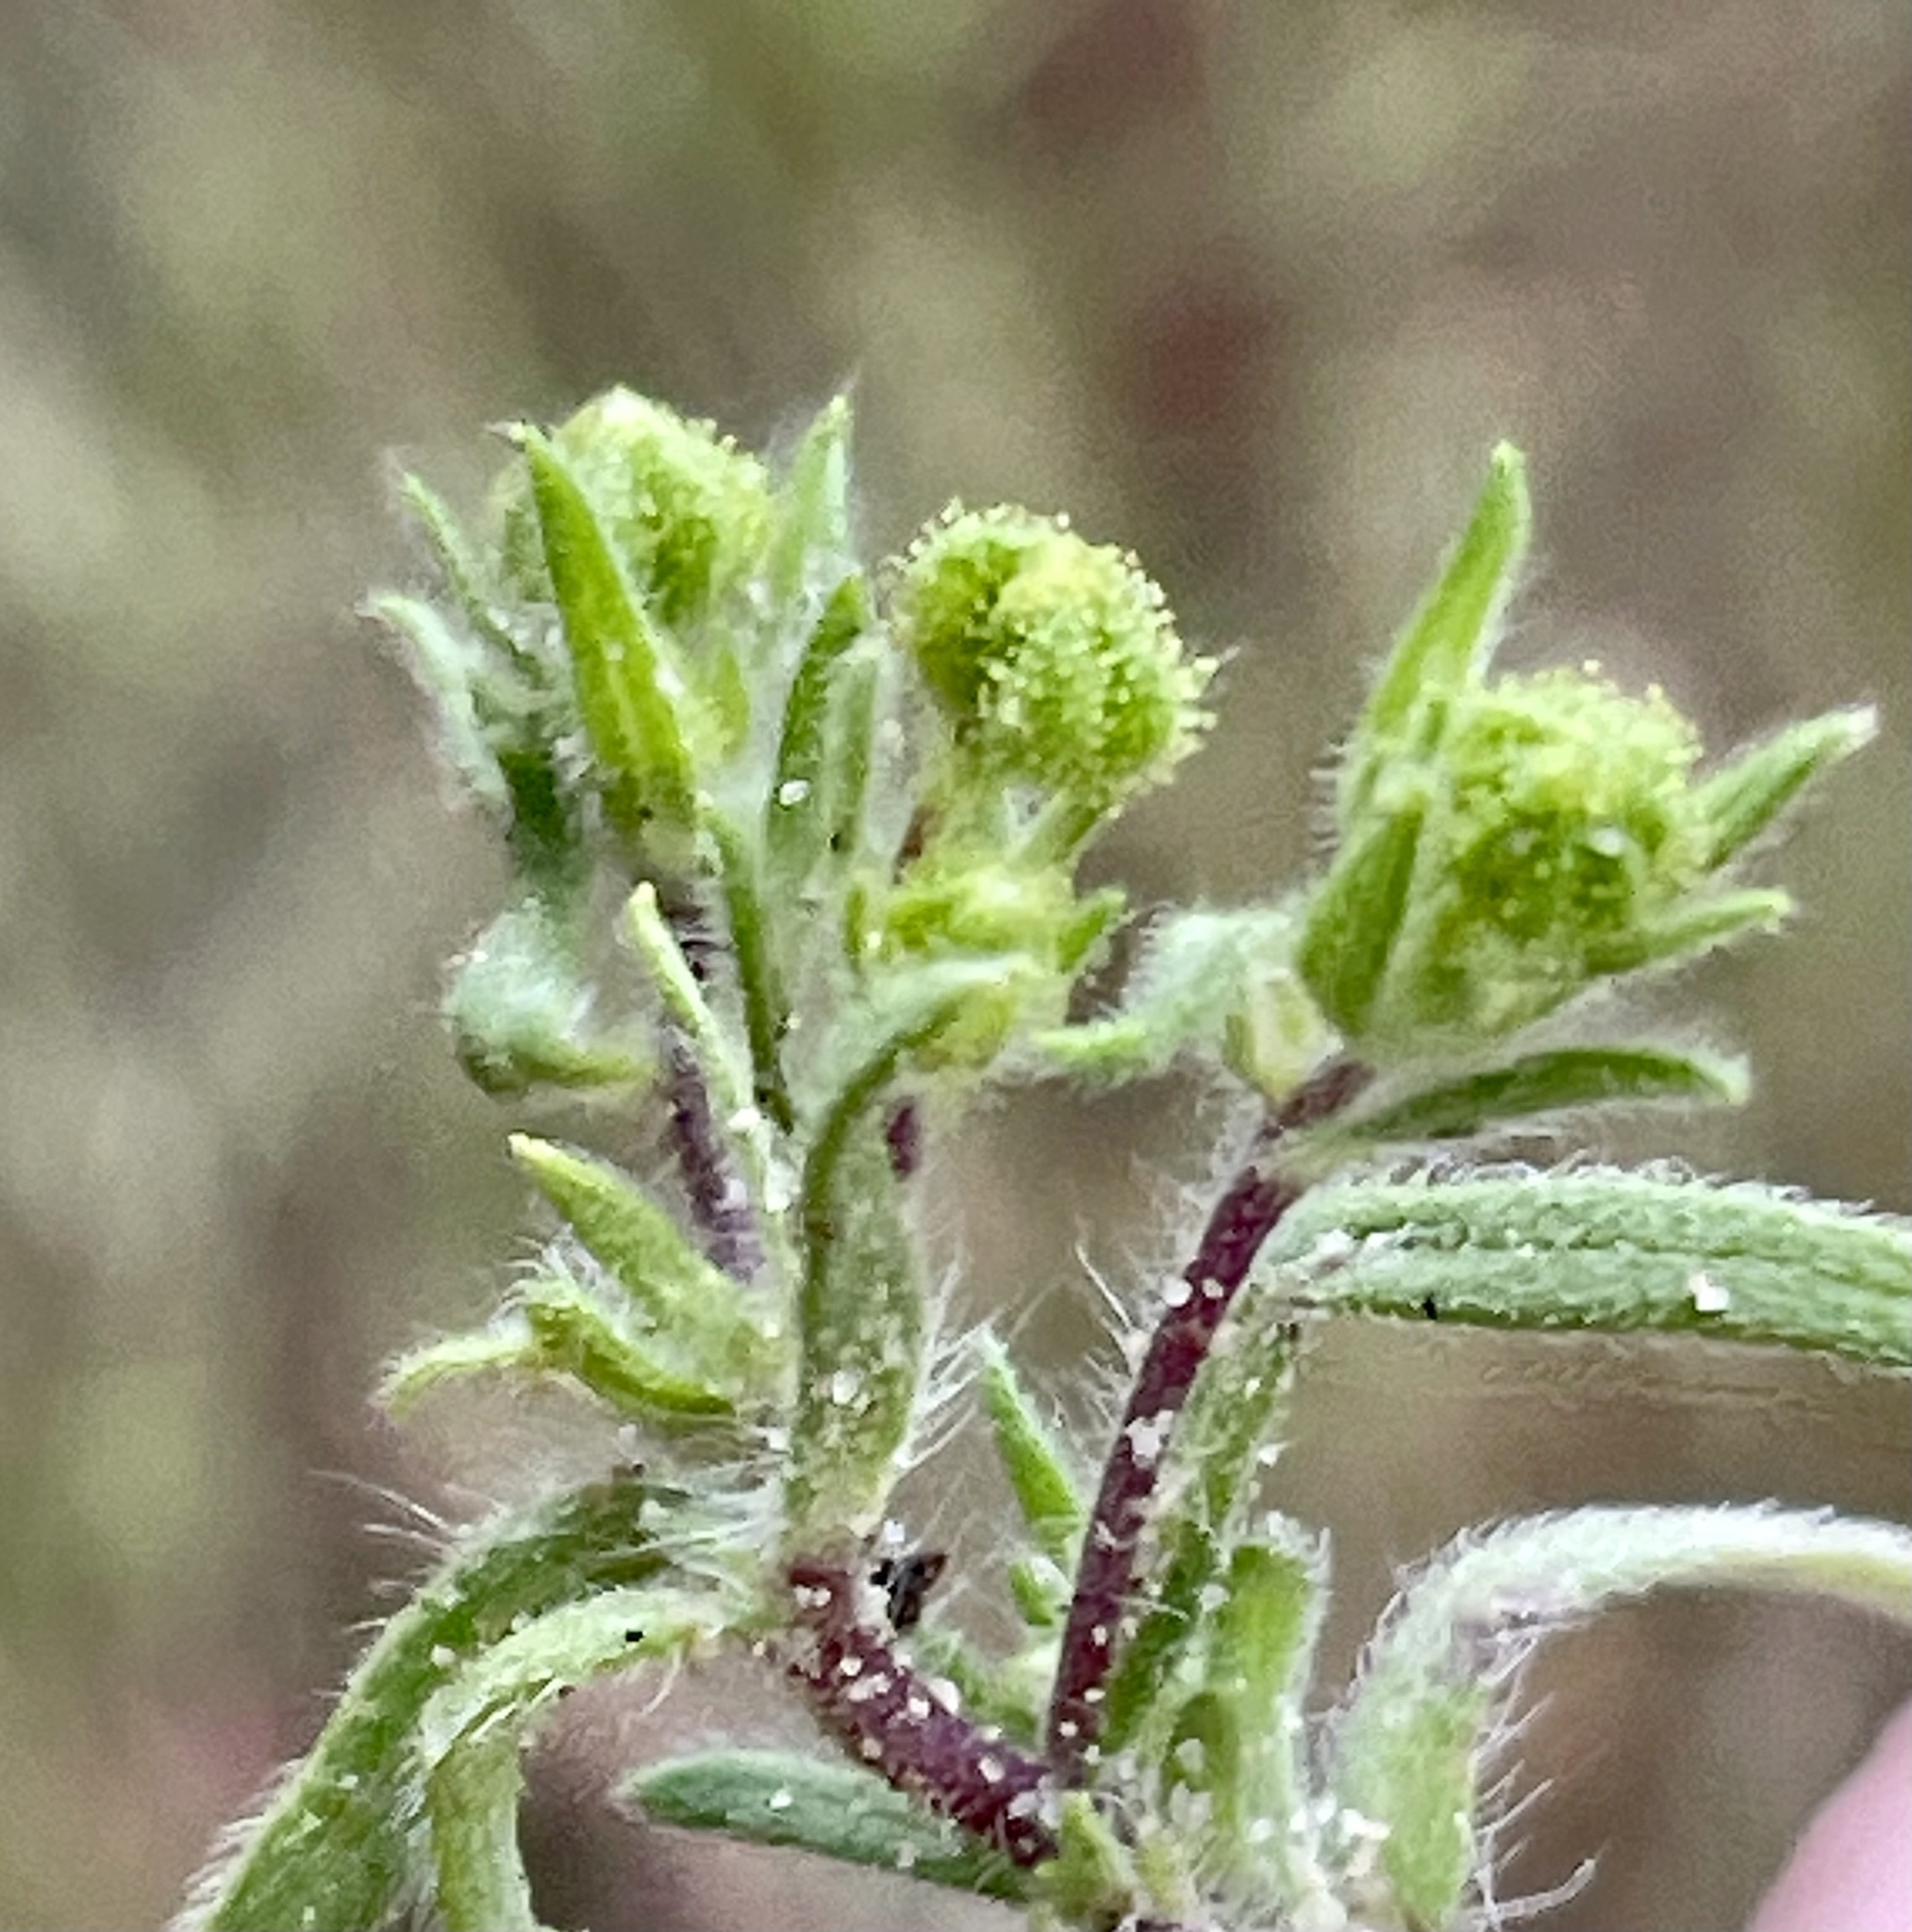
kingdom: Plantae
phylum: Tracheophyta
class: Magnoliopsida
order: Asterales
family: Asteraceae
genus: Madia
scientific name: Madia exigua
